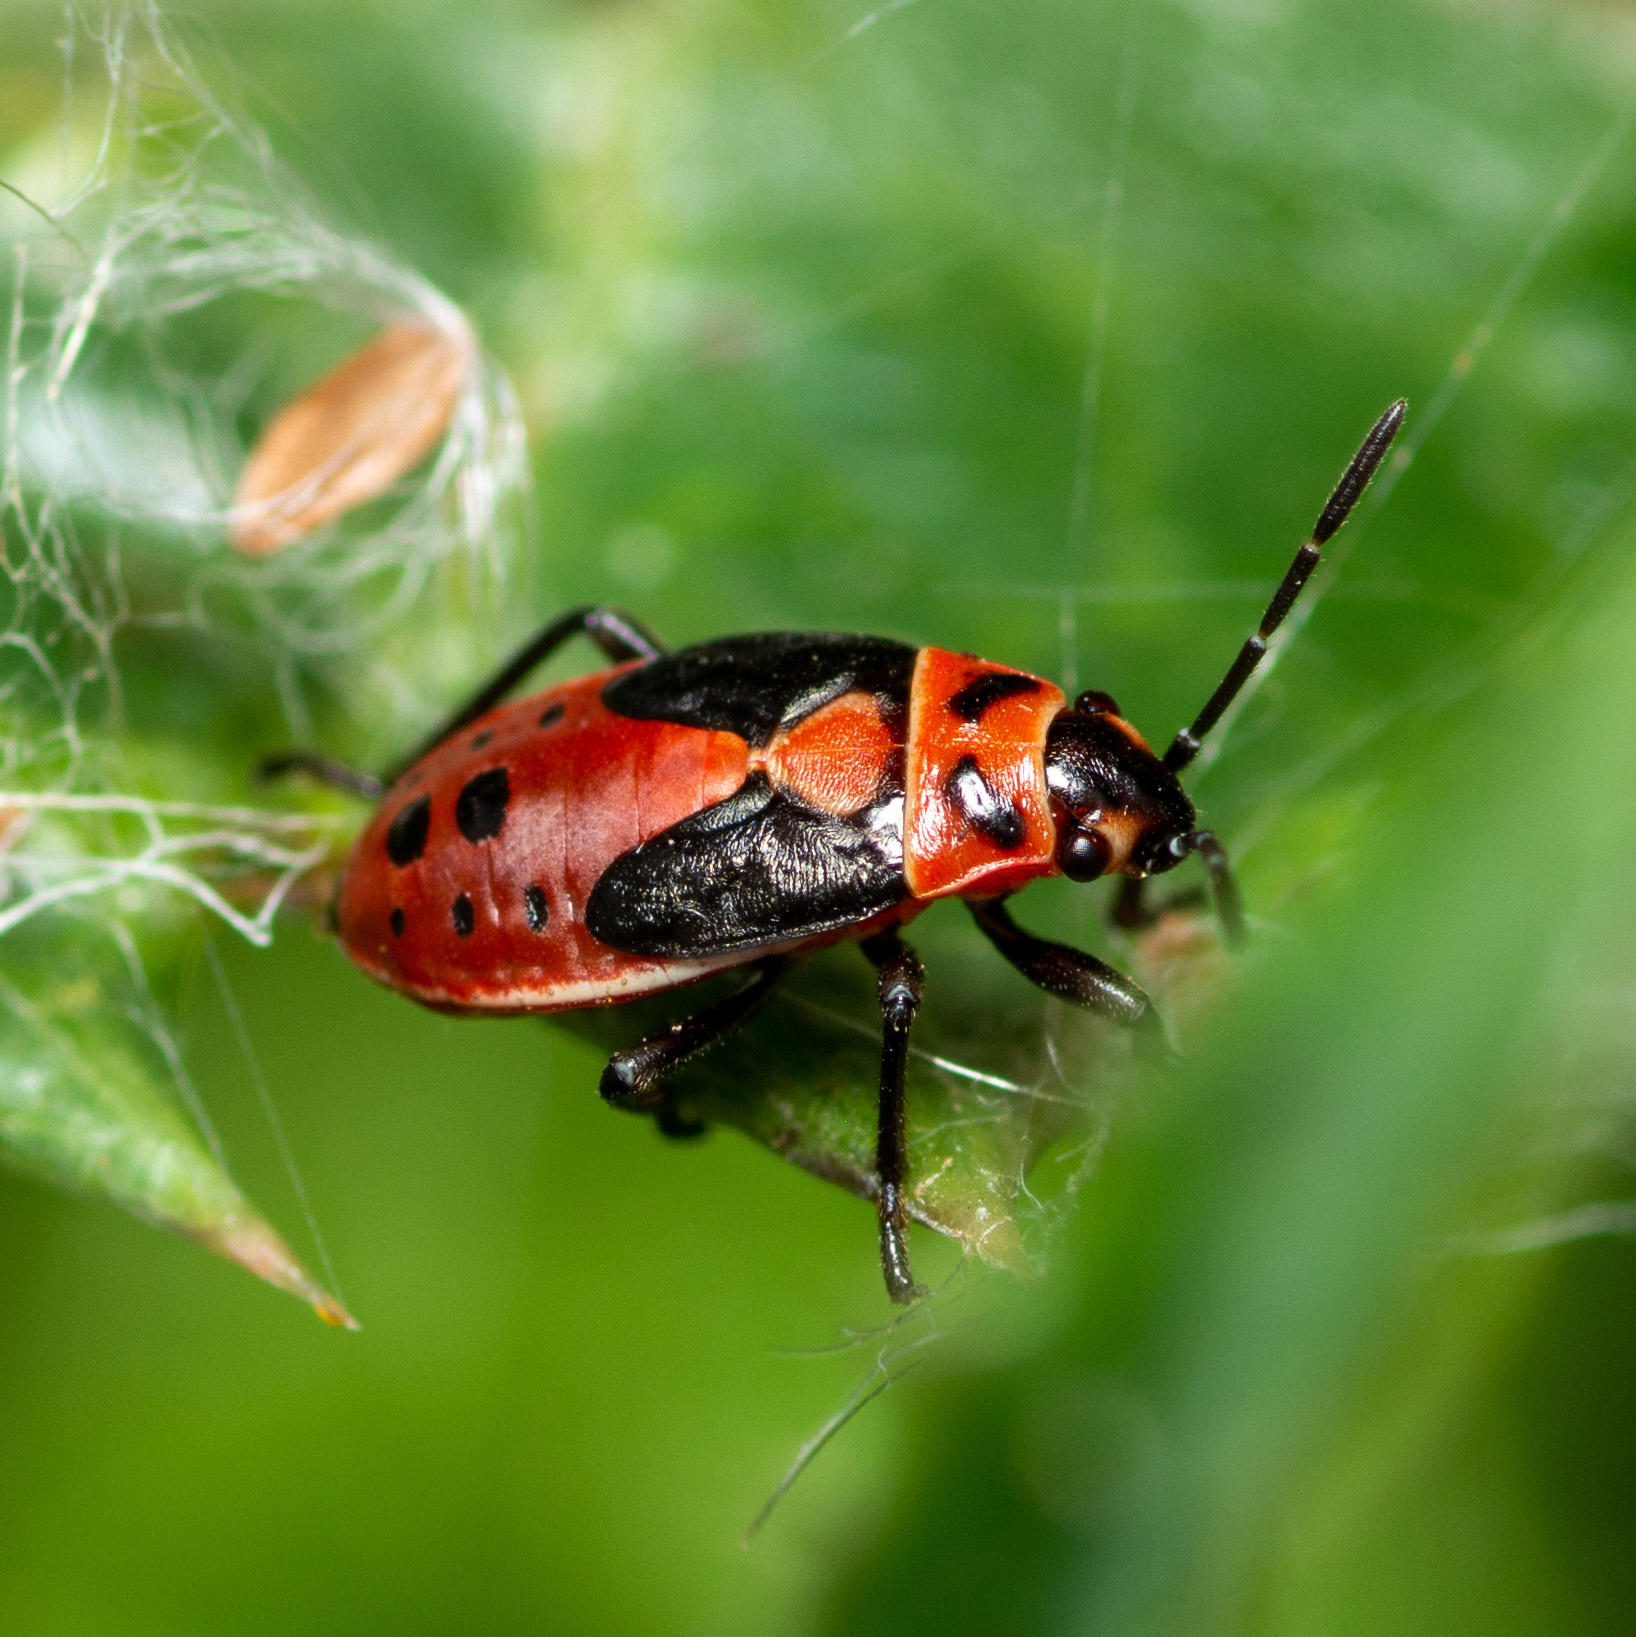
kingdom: Animalia
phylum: Arthropoda
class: Insecta
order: Hemiptera
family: Lygaeidae
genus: Lygaeus
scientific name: Lygaeus kalmii
